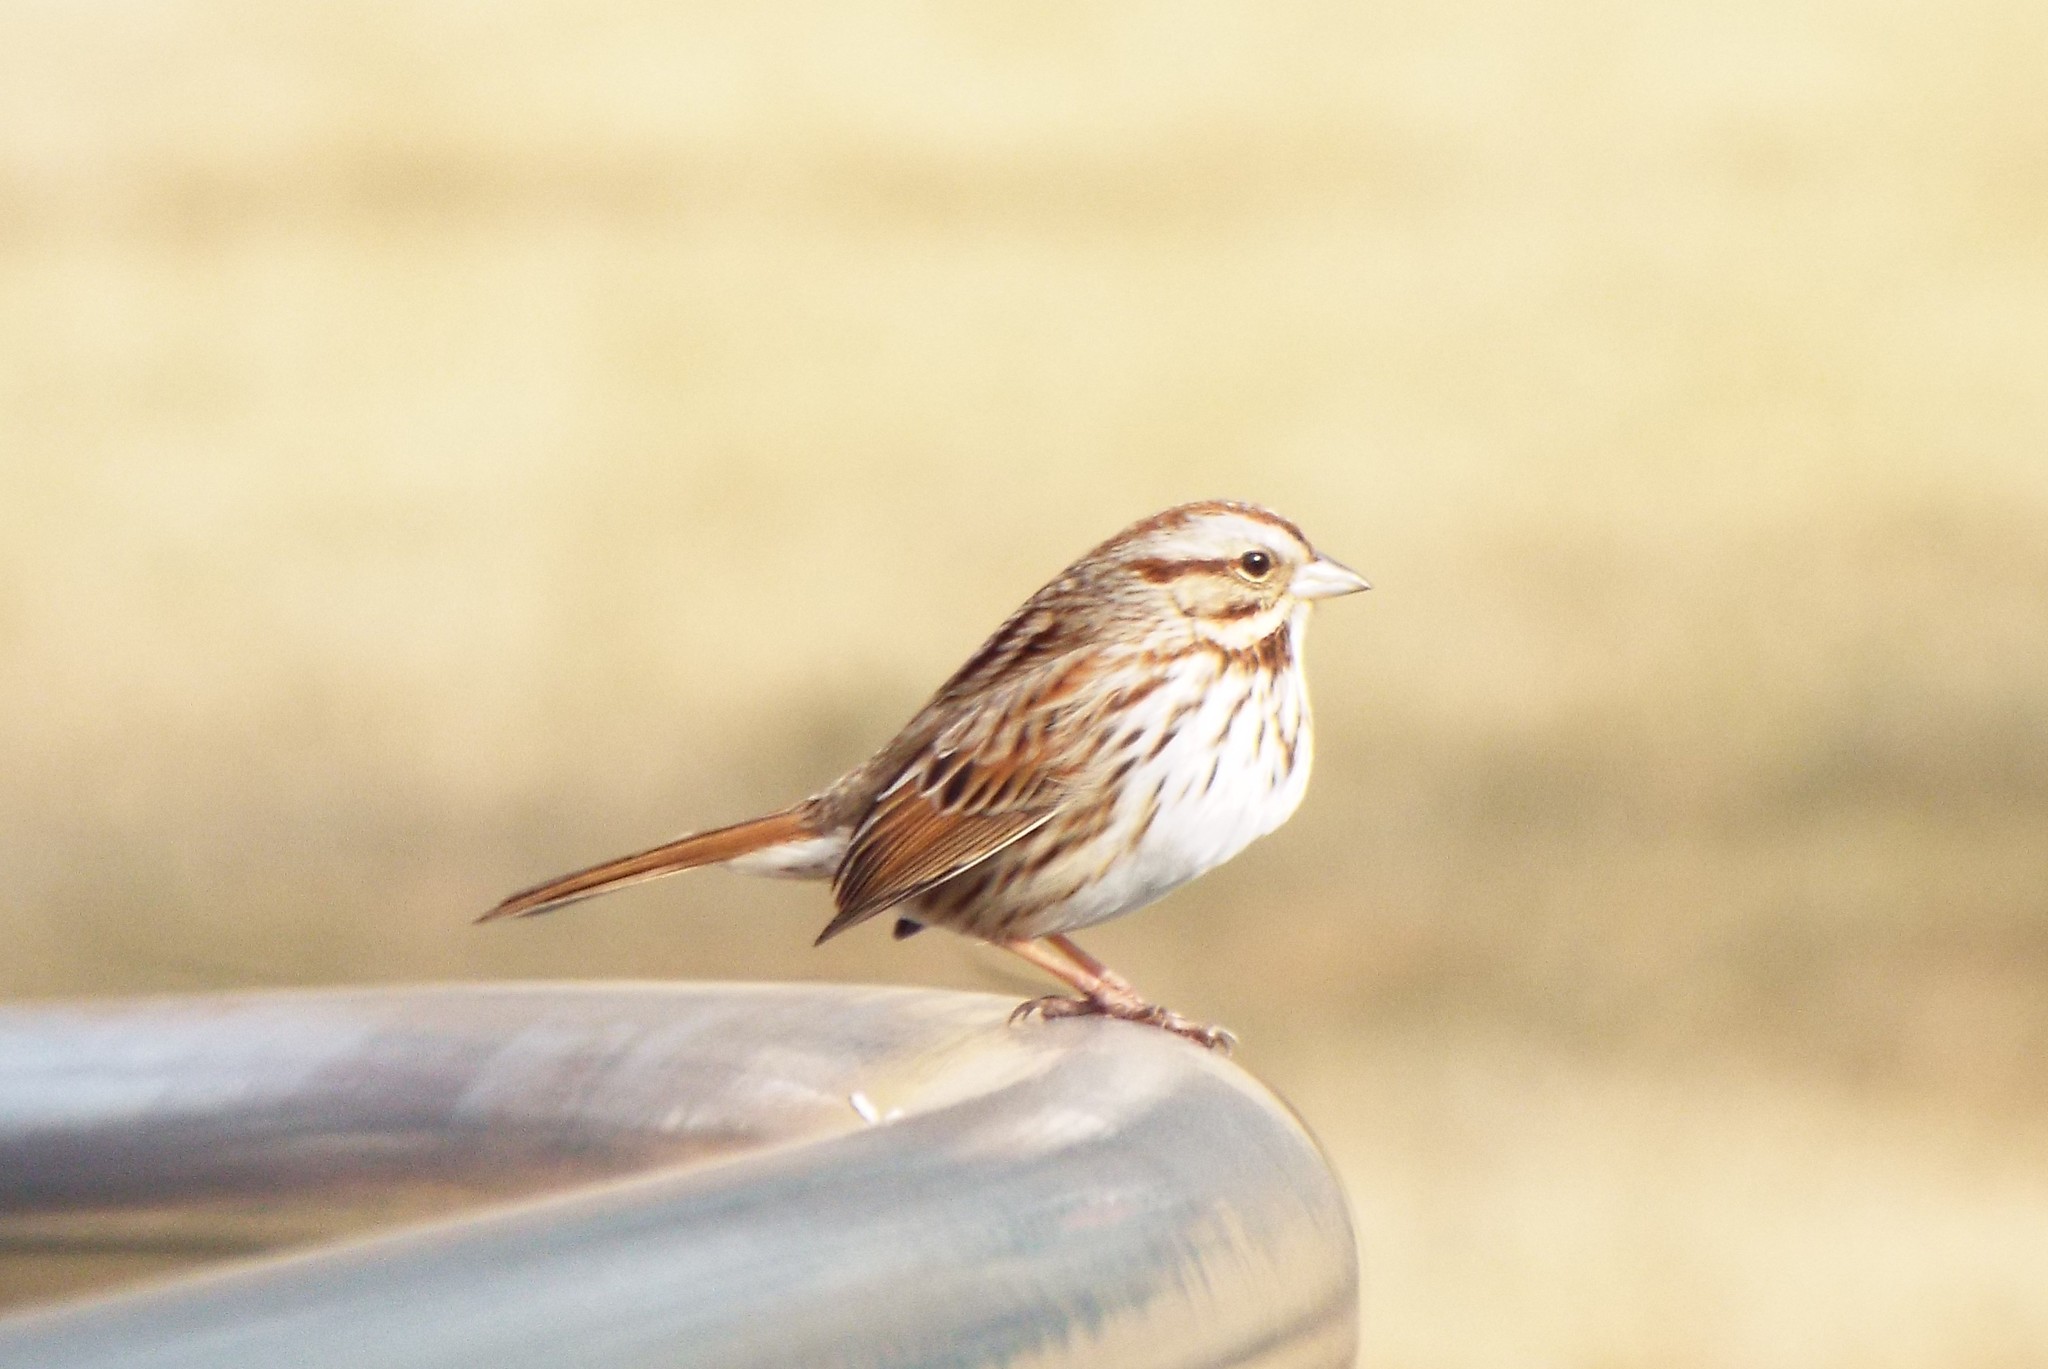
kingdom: Animalia
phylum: Chordata
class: Aves
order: Passeriformes
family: Passerellidae
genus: Melospiza
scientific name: Melospiza melodia
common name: Song sparrow
